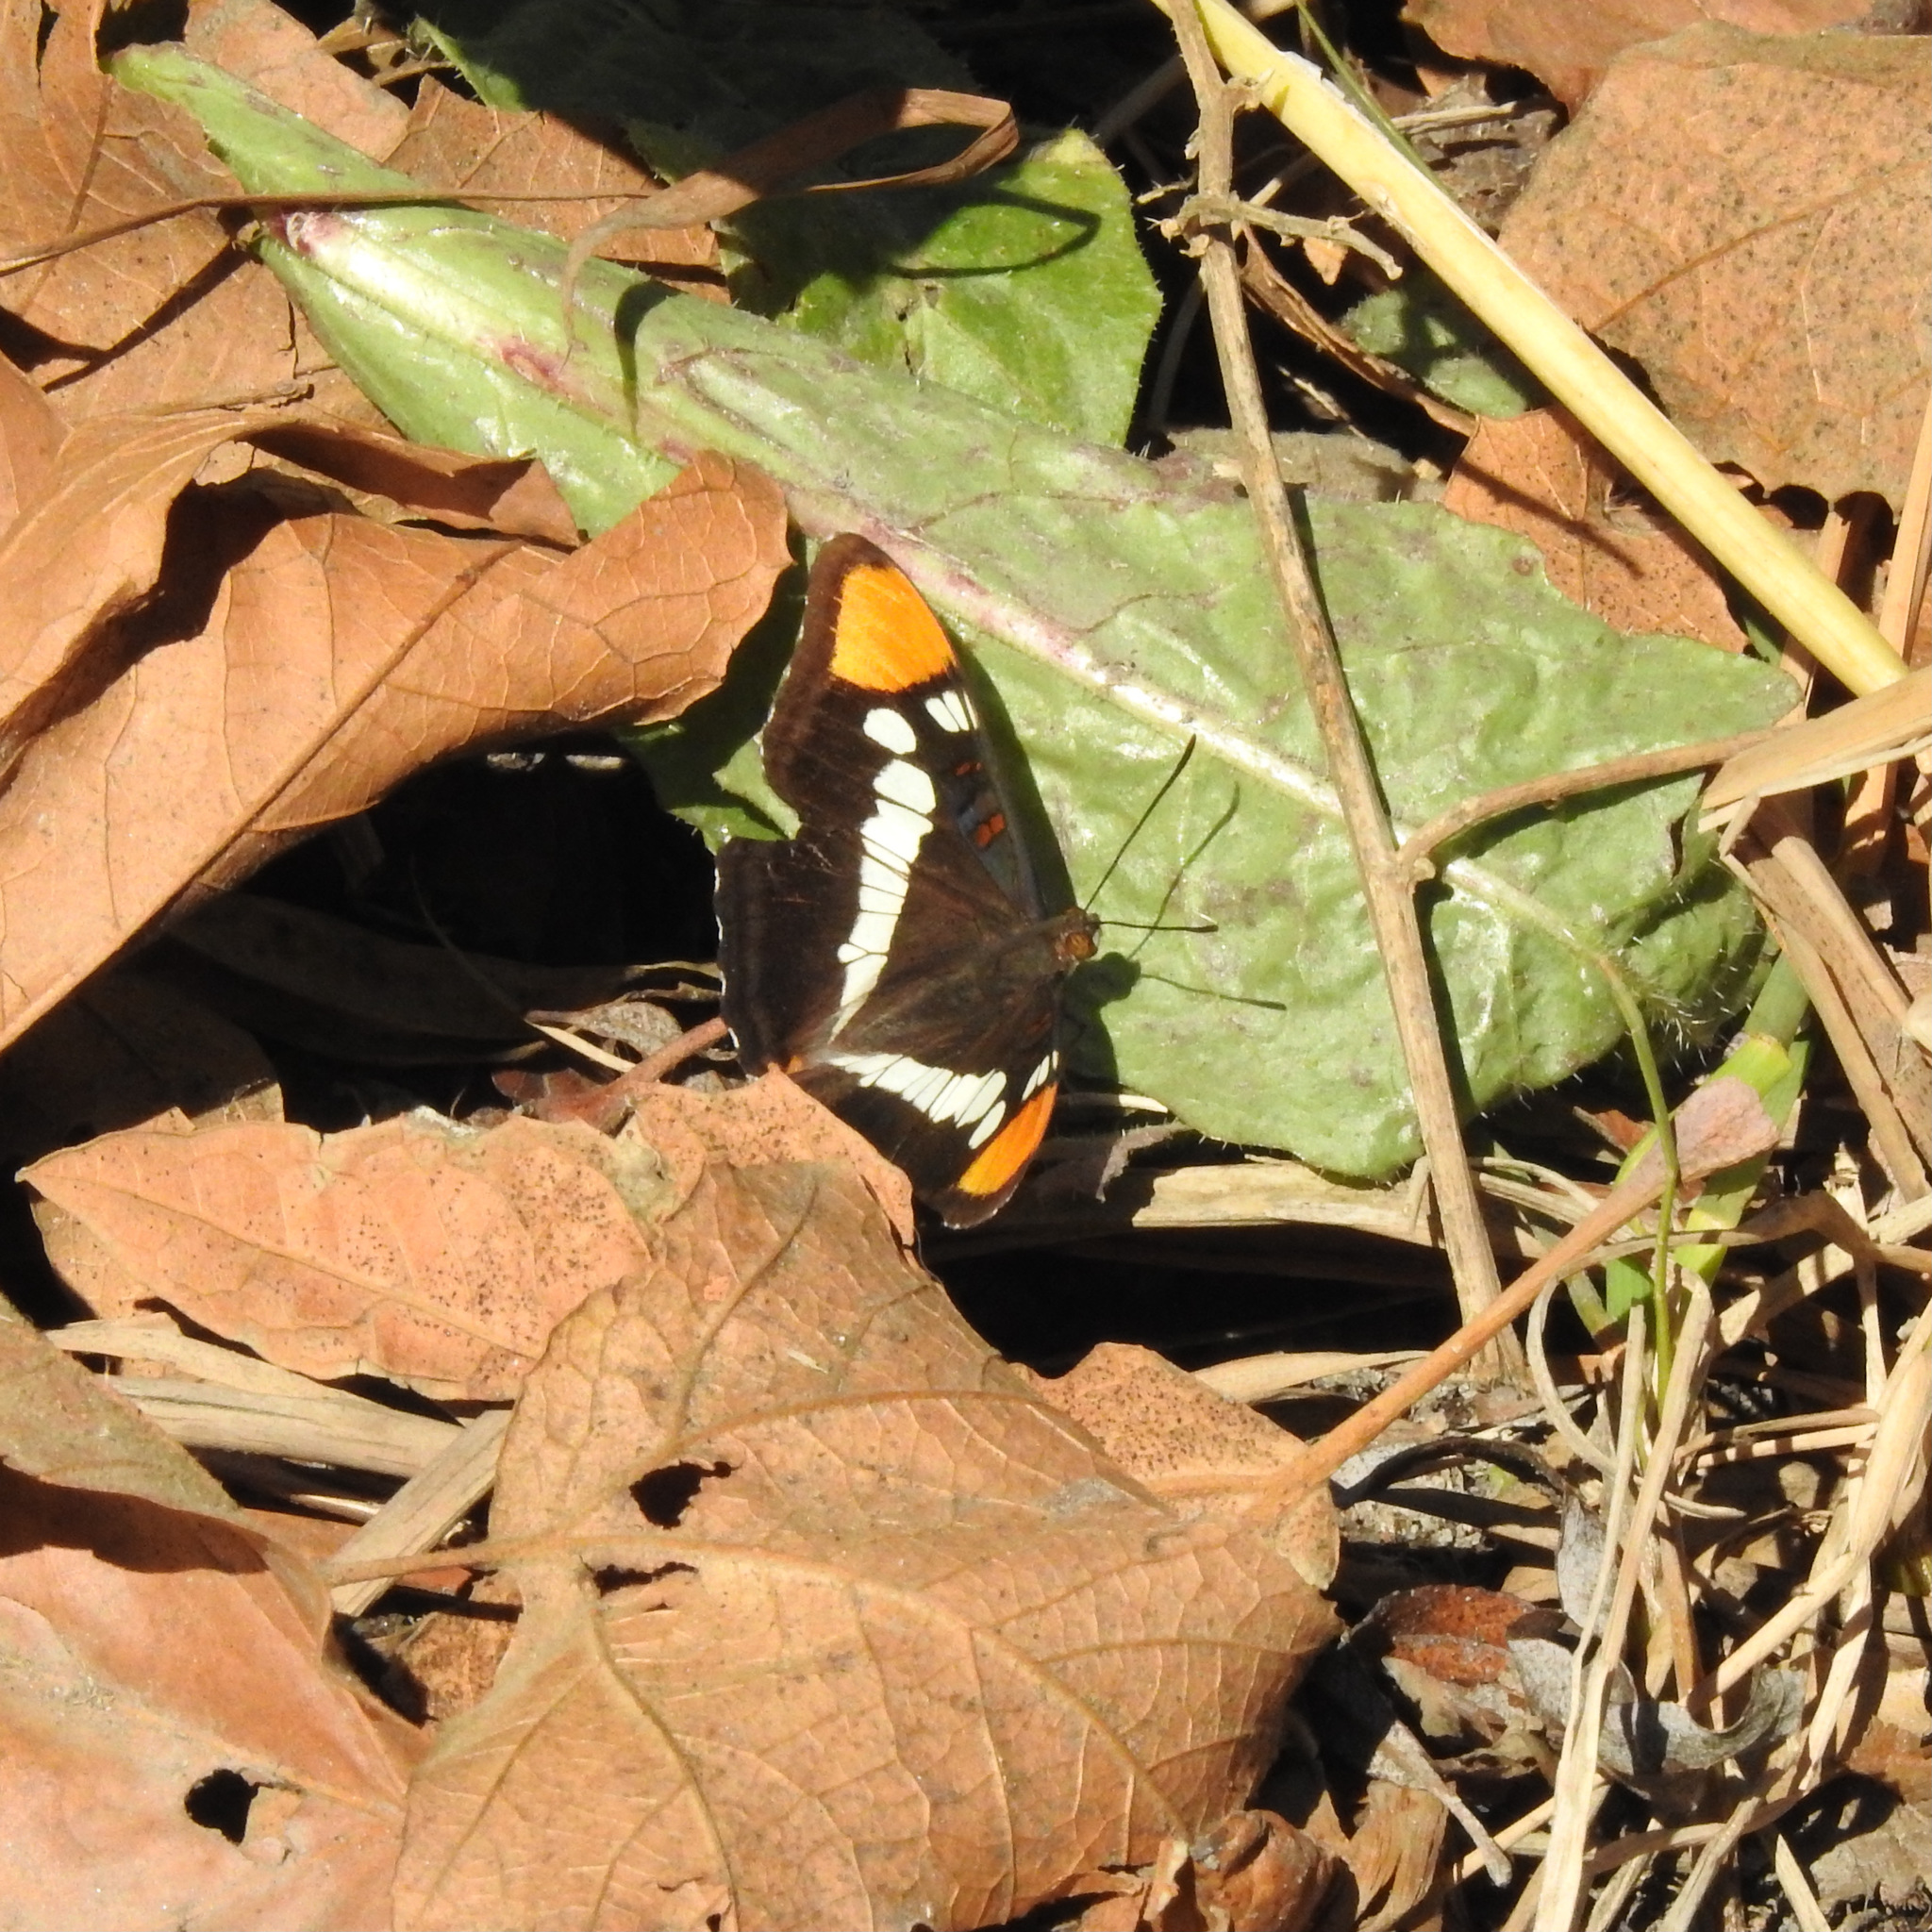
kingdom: Animalia
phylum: Arthropoda
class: Insecta
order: Lepidoptera
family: Nymphalidae
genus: Limenitis
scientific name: Limenitis bredowii
